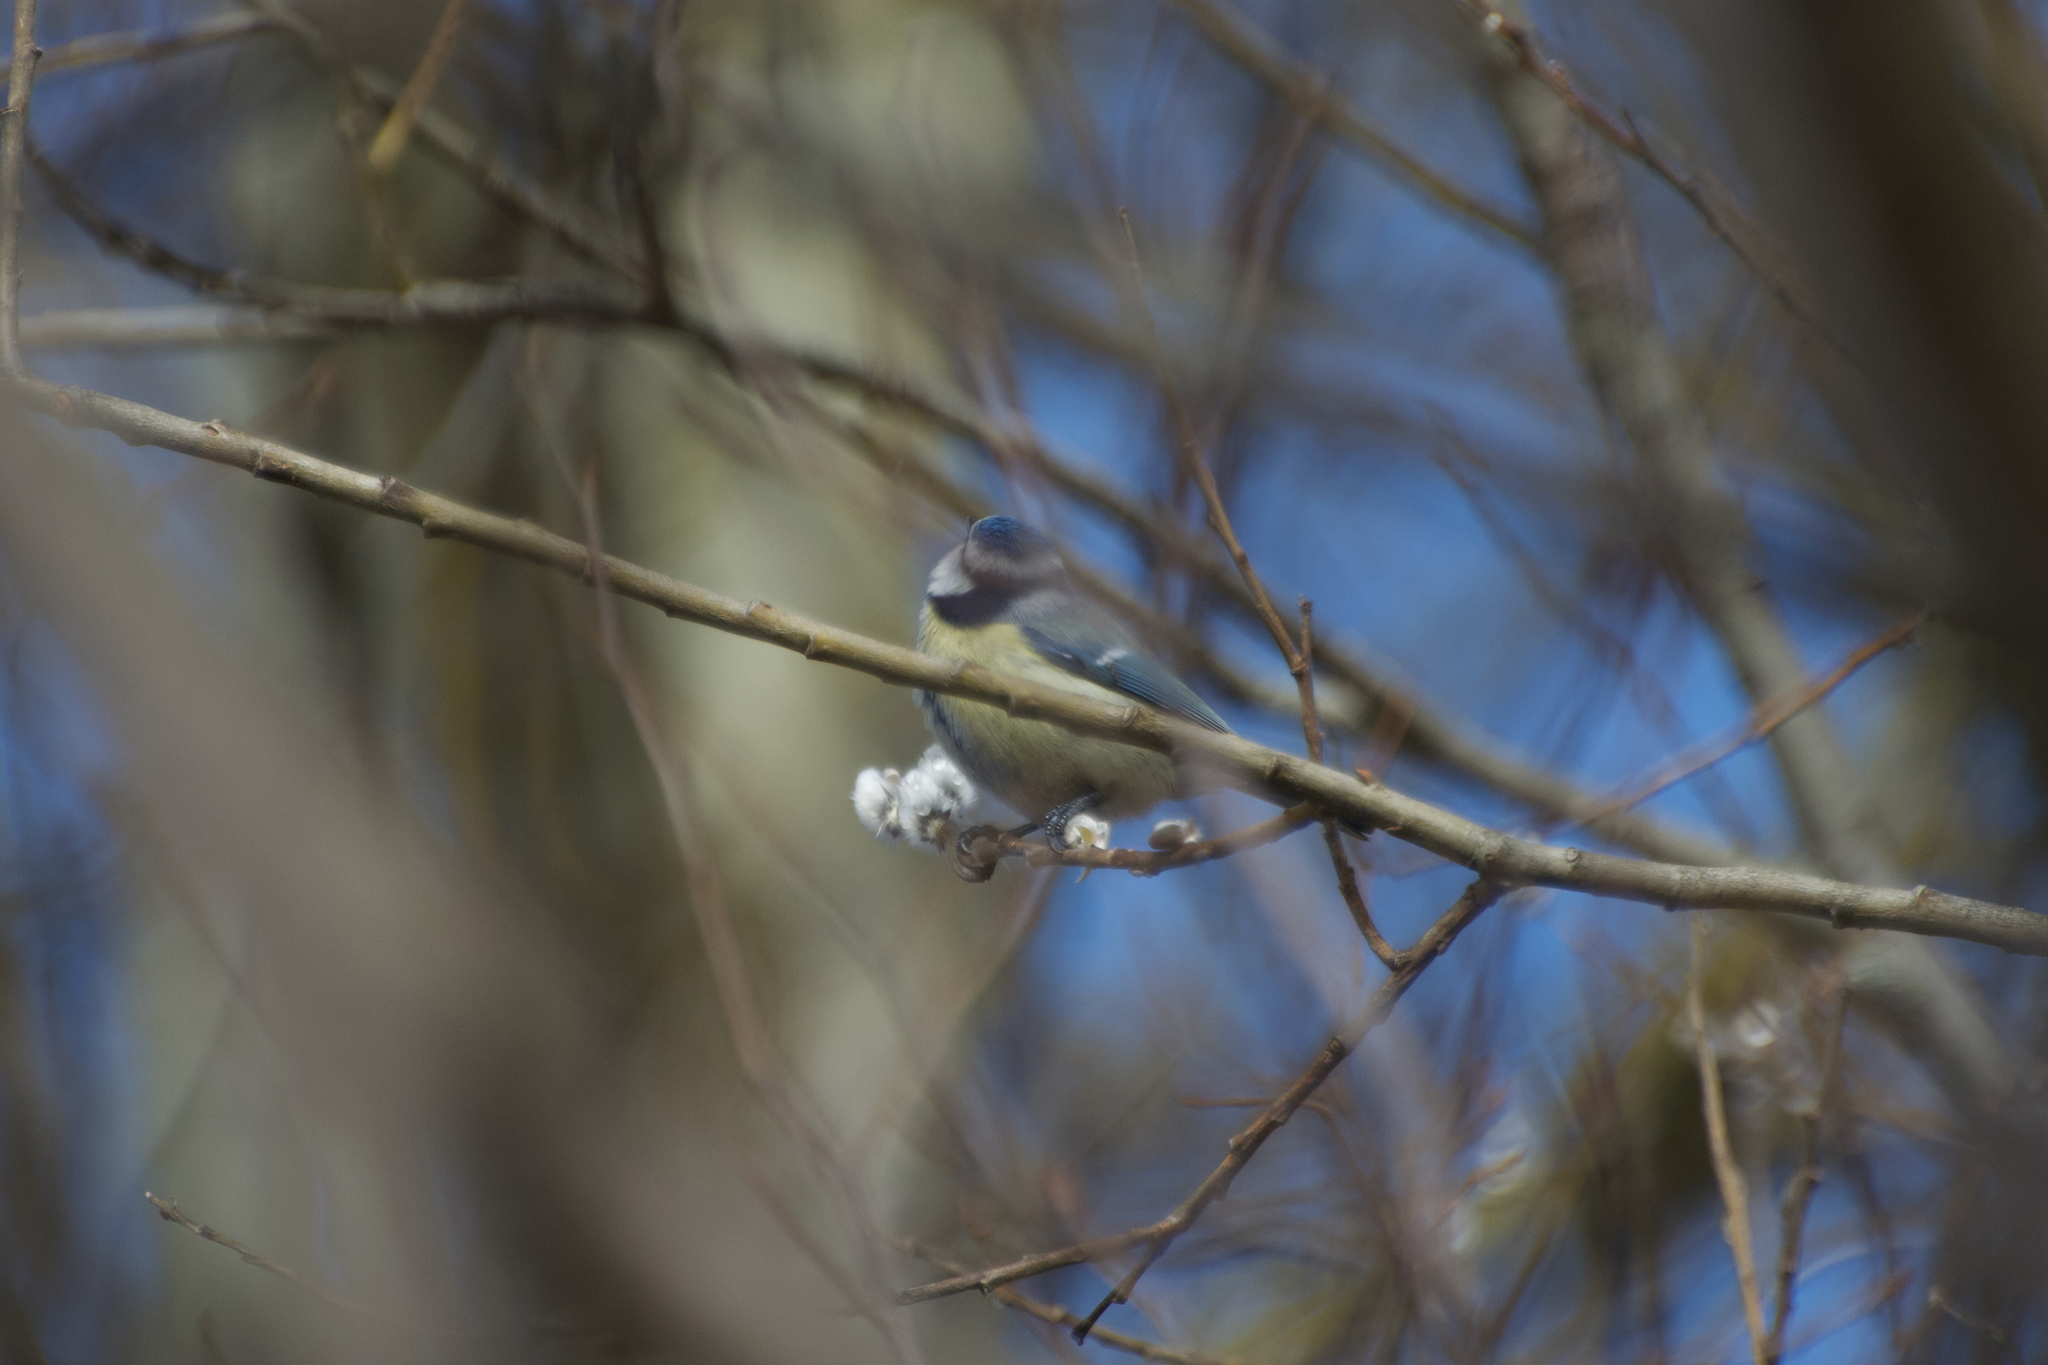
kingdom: Animalia
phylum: Chordata
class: Aves
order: Passeriformes
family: Paridae
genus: Cyanistes
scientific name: Cyanistes caeruleus
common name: Eurasian blue tit
